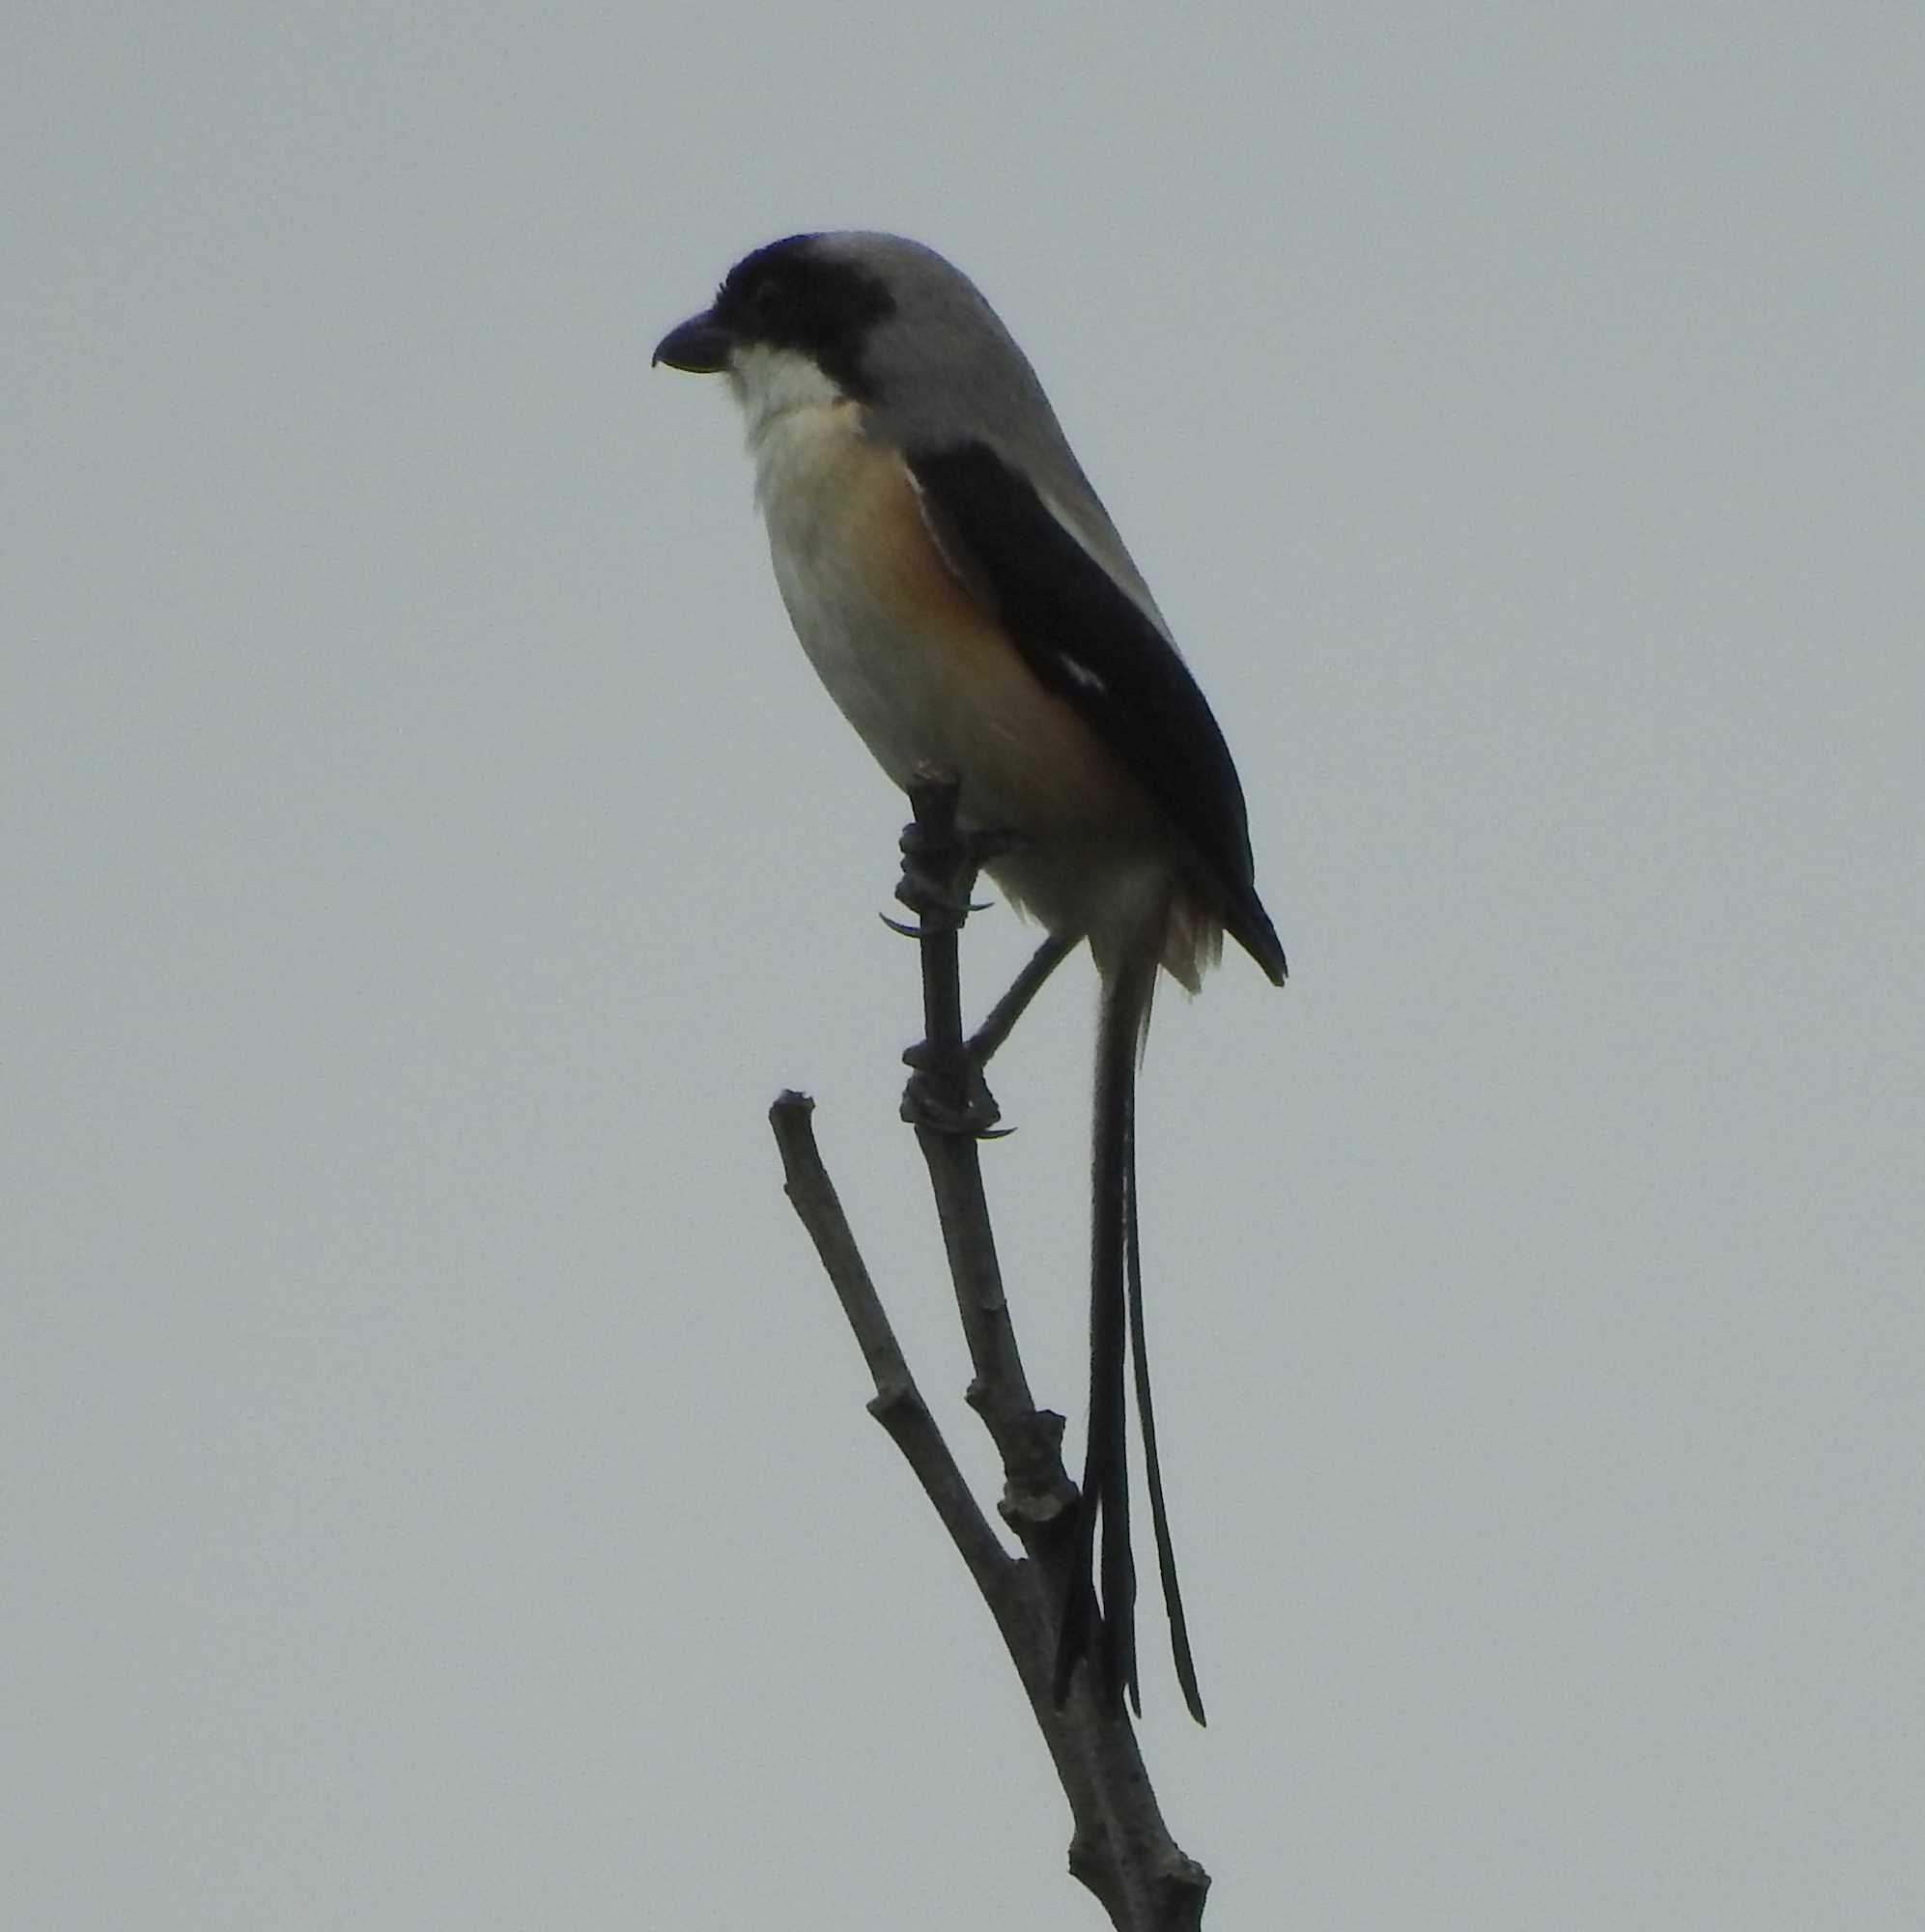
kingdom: Animalia
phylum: Chordata
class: Aves
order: Passeriformes
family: Laniidae
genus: Lanius
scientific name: Lanius schach
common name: Long-tailed shrike
